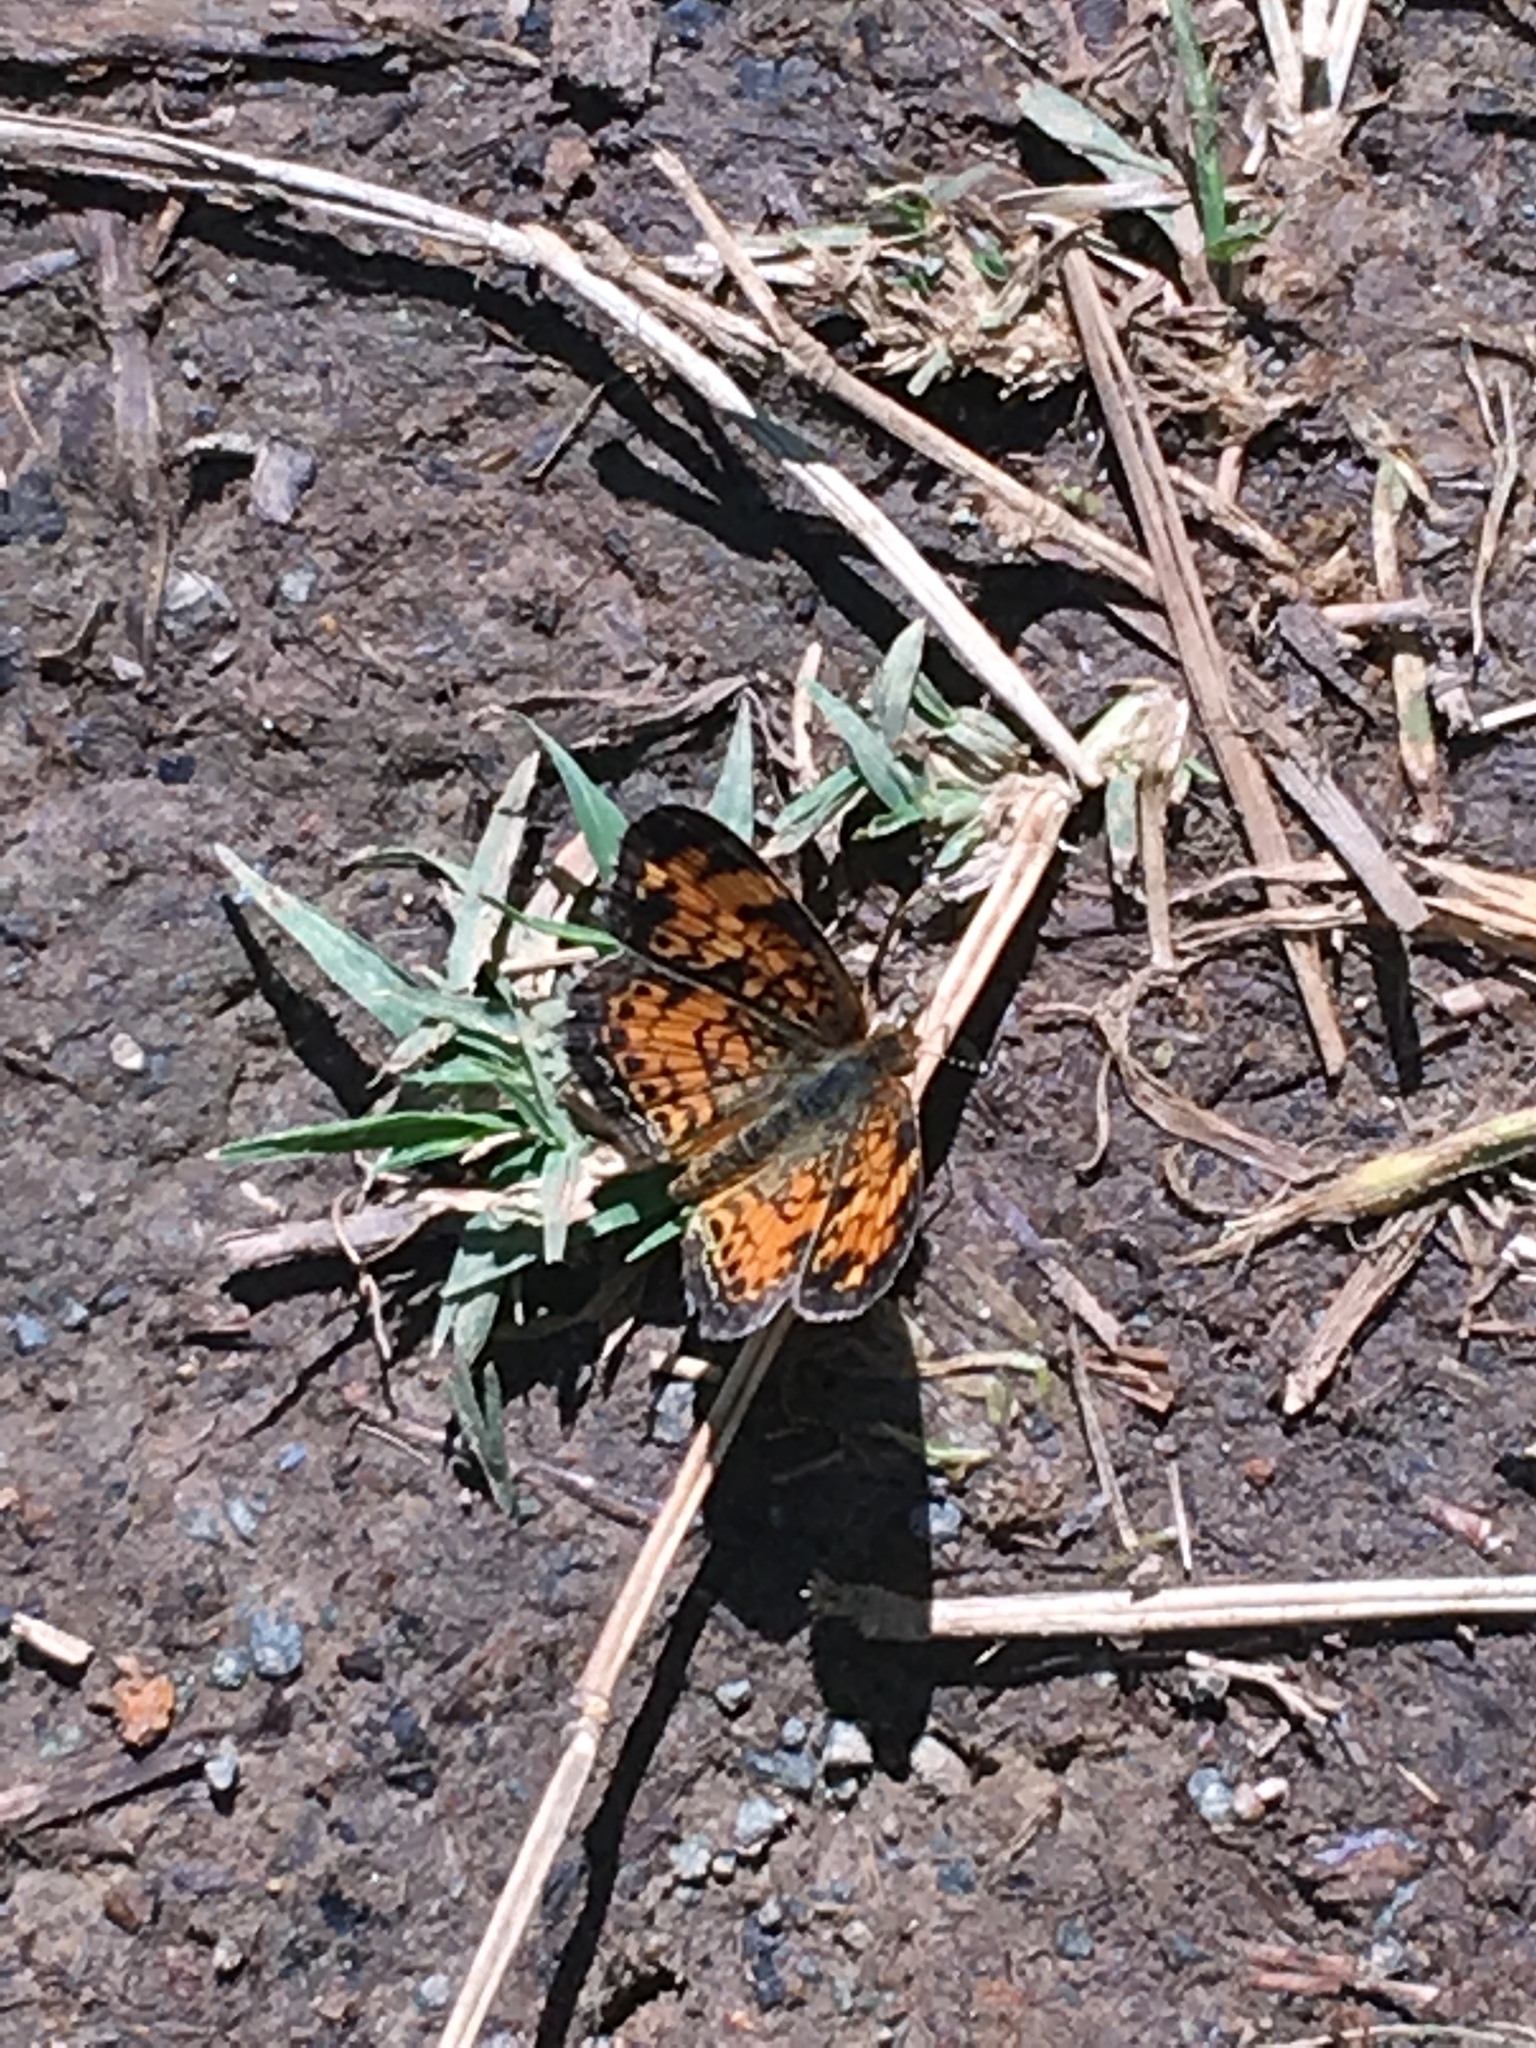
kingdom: Animalia
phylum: Arthropoda
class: Insecta
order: Lepidoptera
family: Nymphalidae
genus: Phyciodes
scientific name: Phyciodes tharos
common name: Pearl crescent
